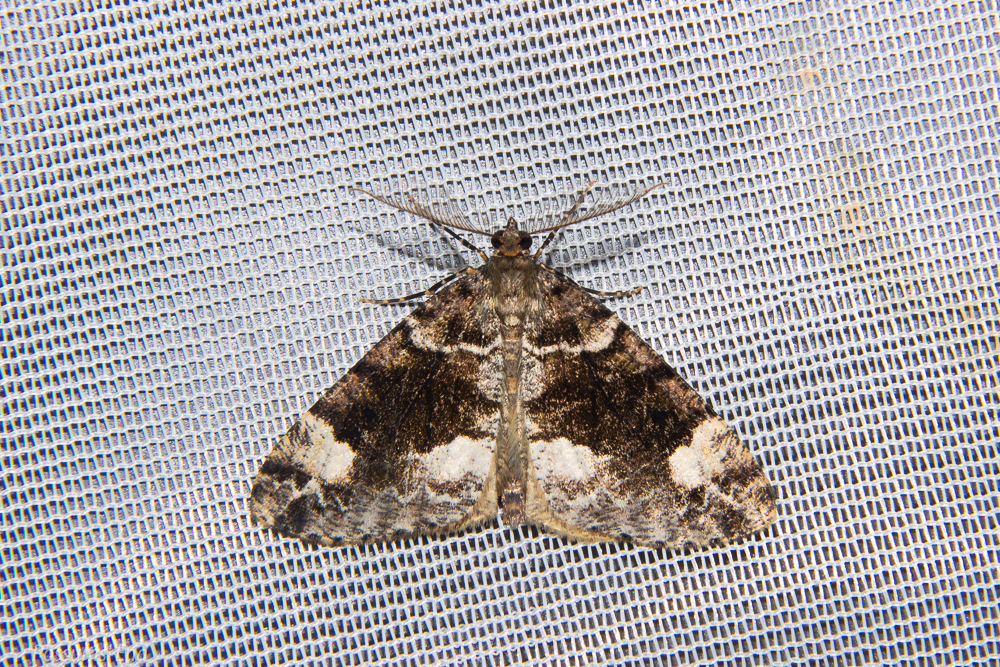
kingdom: Animalia
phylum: Arthropoda
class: Insecta
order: Lepidoptera
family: Geometridae
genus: Pseudocoremia
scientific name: Pseudocoremia productata
